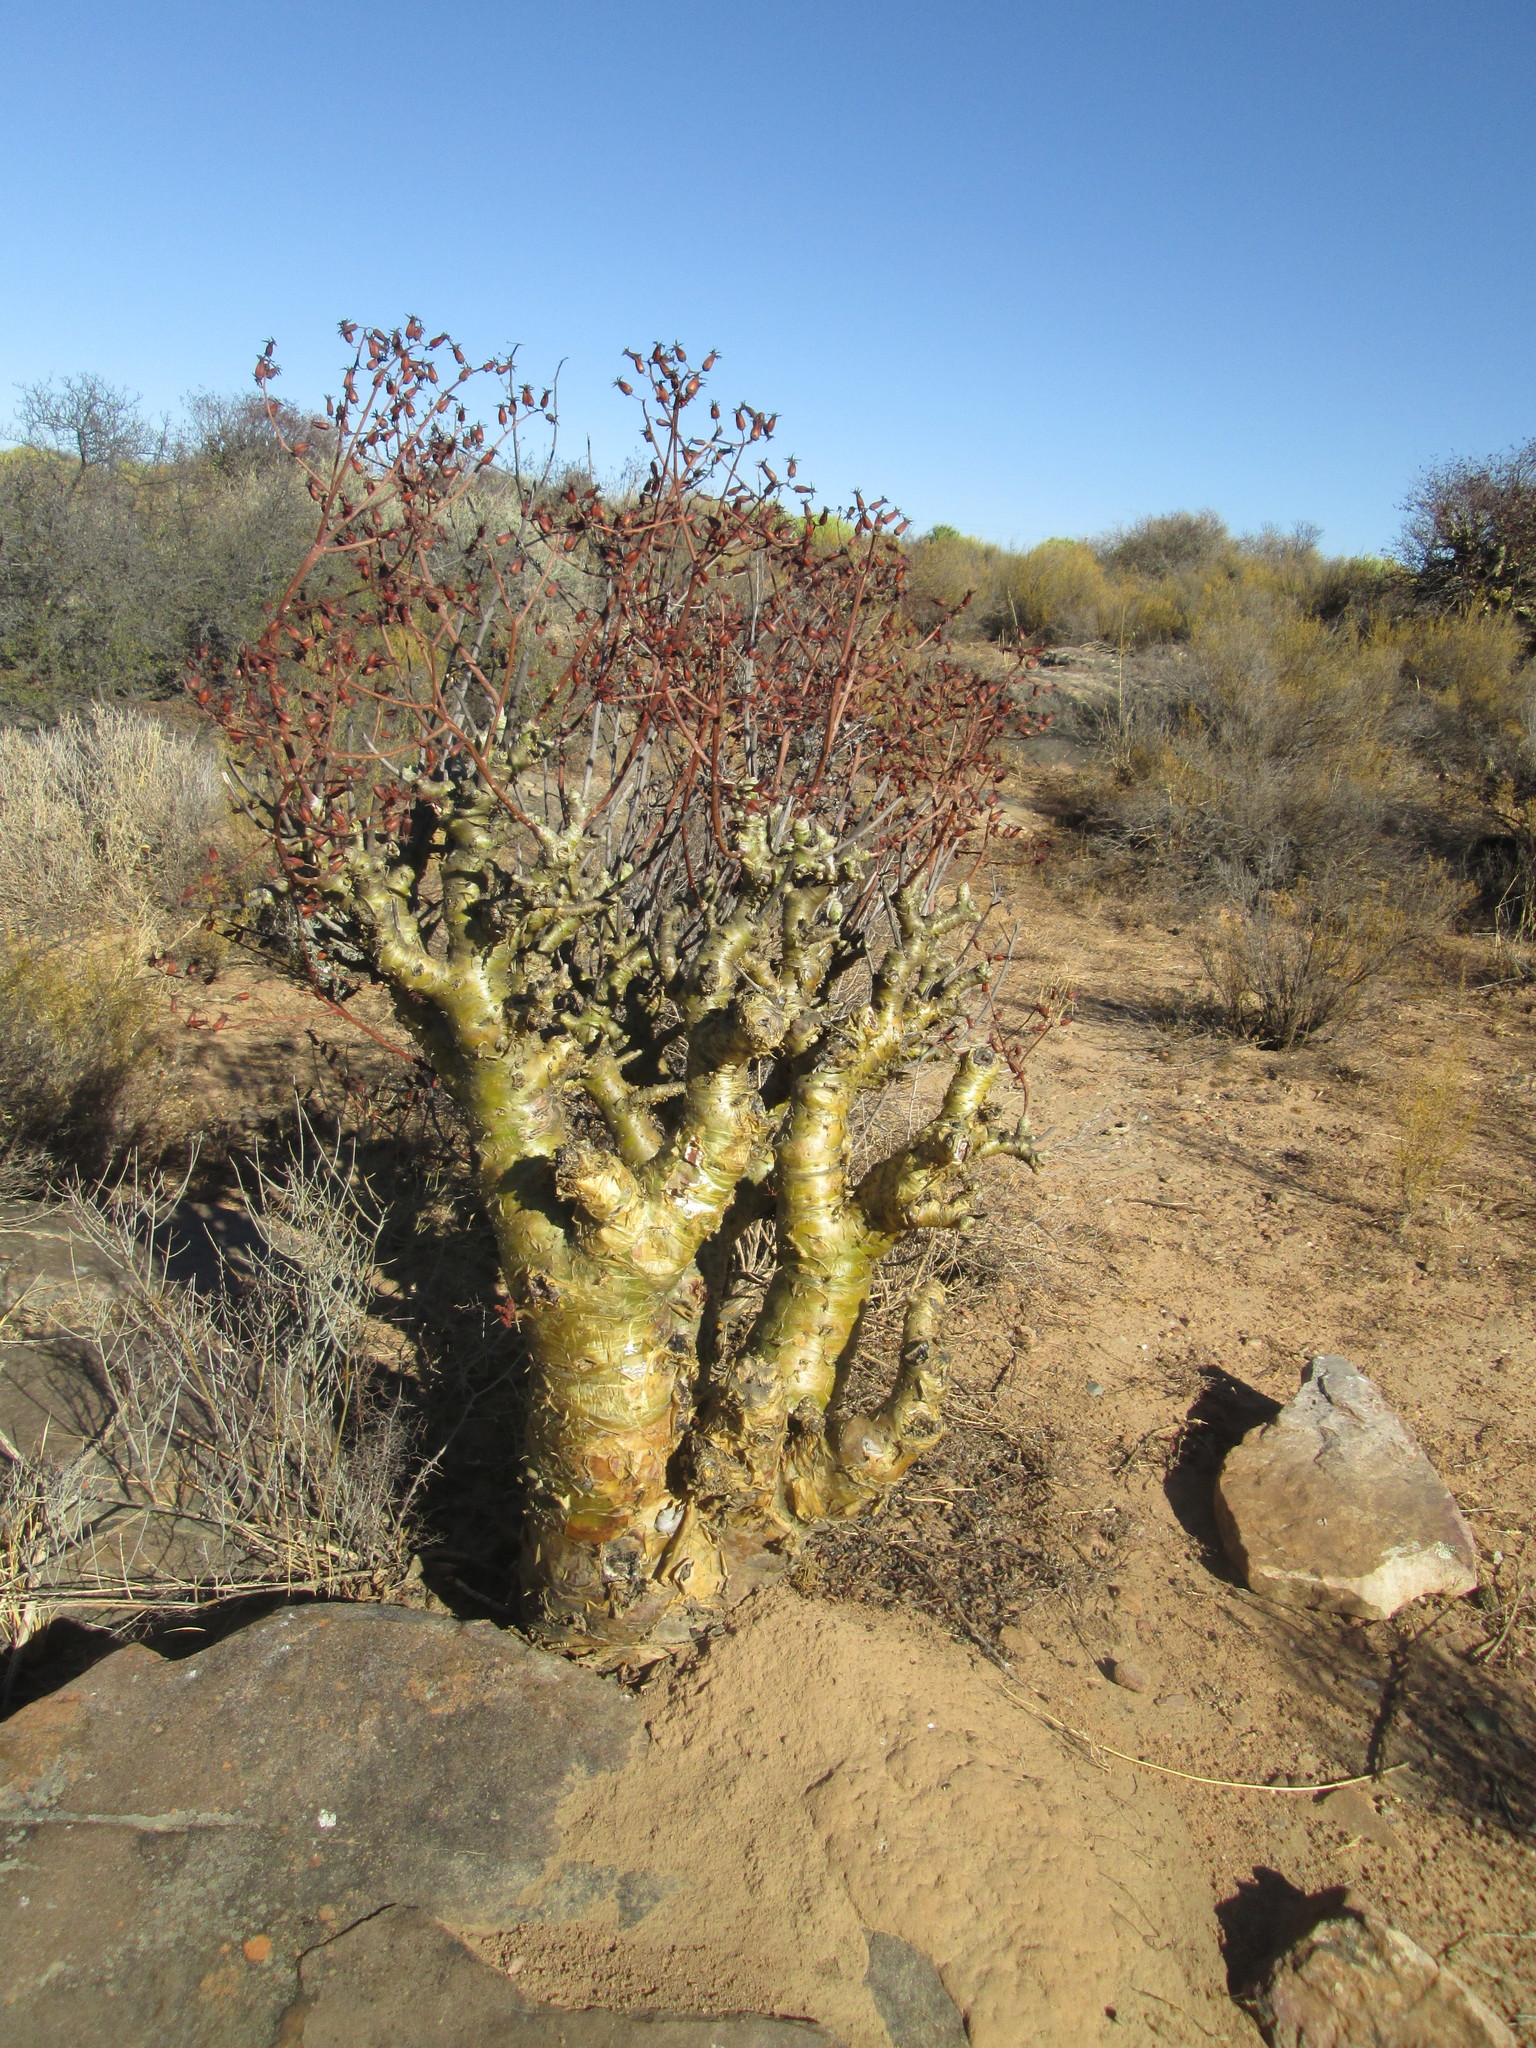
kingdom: Plantae
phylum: Tracheophyta
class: Magnoliopsida
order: Saxifragales
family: Crassulaceae
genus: Tylecodon
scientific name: Tylecodon paniculatus
